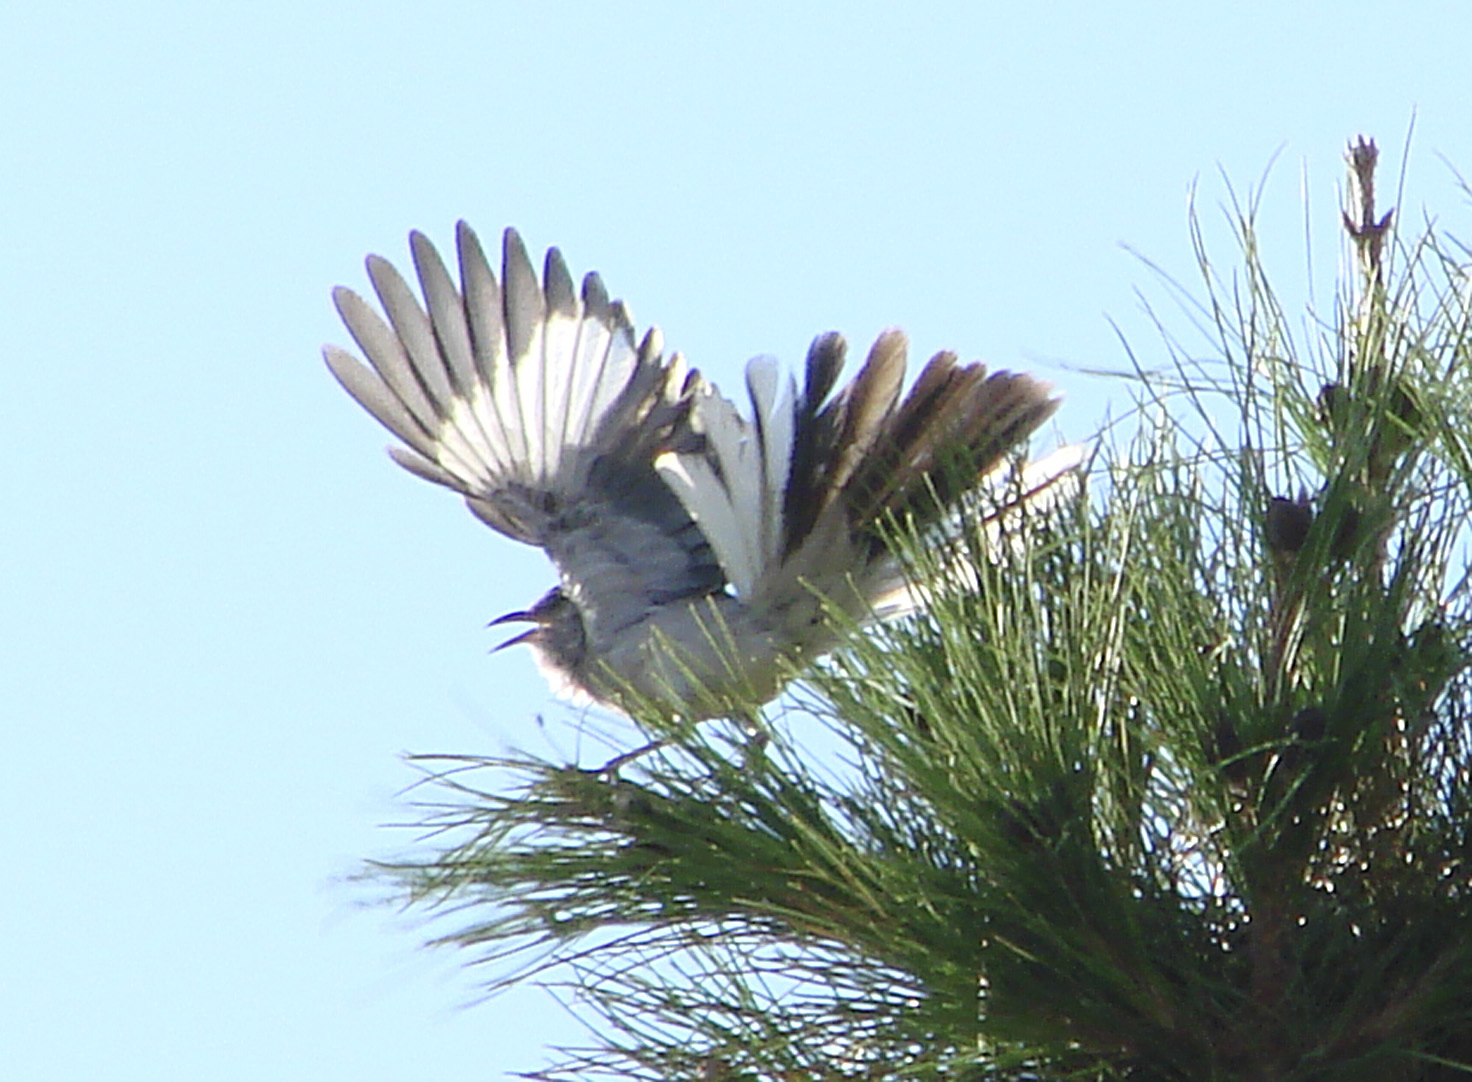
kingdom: Animalia
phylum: Chordata
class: Aves
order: Passeriformes
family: Mimidae
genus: Mimus
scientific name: Mimus polyglottos
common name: Northern mockingbird
